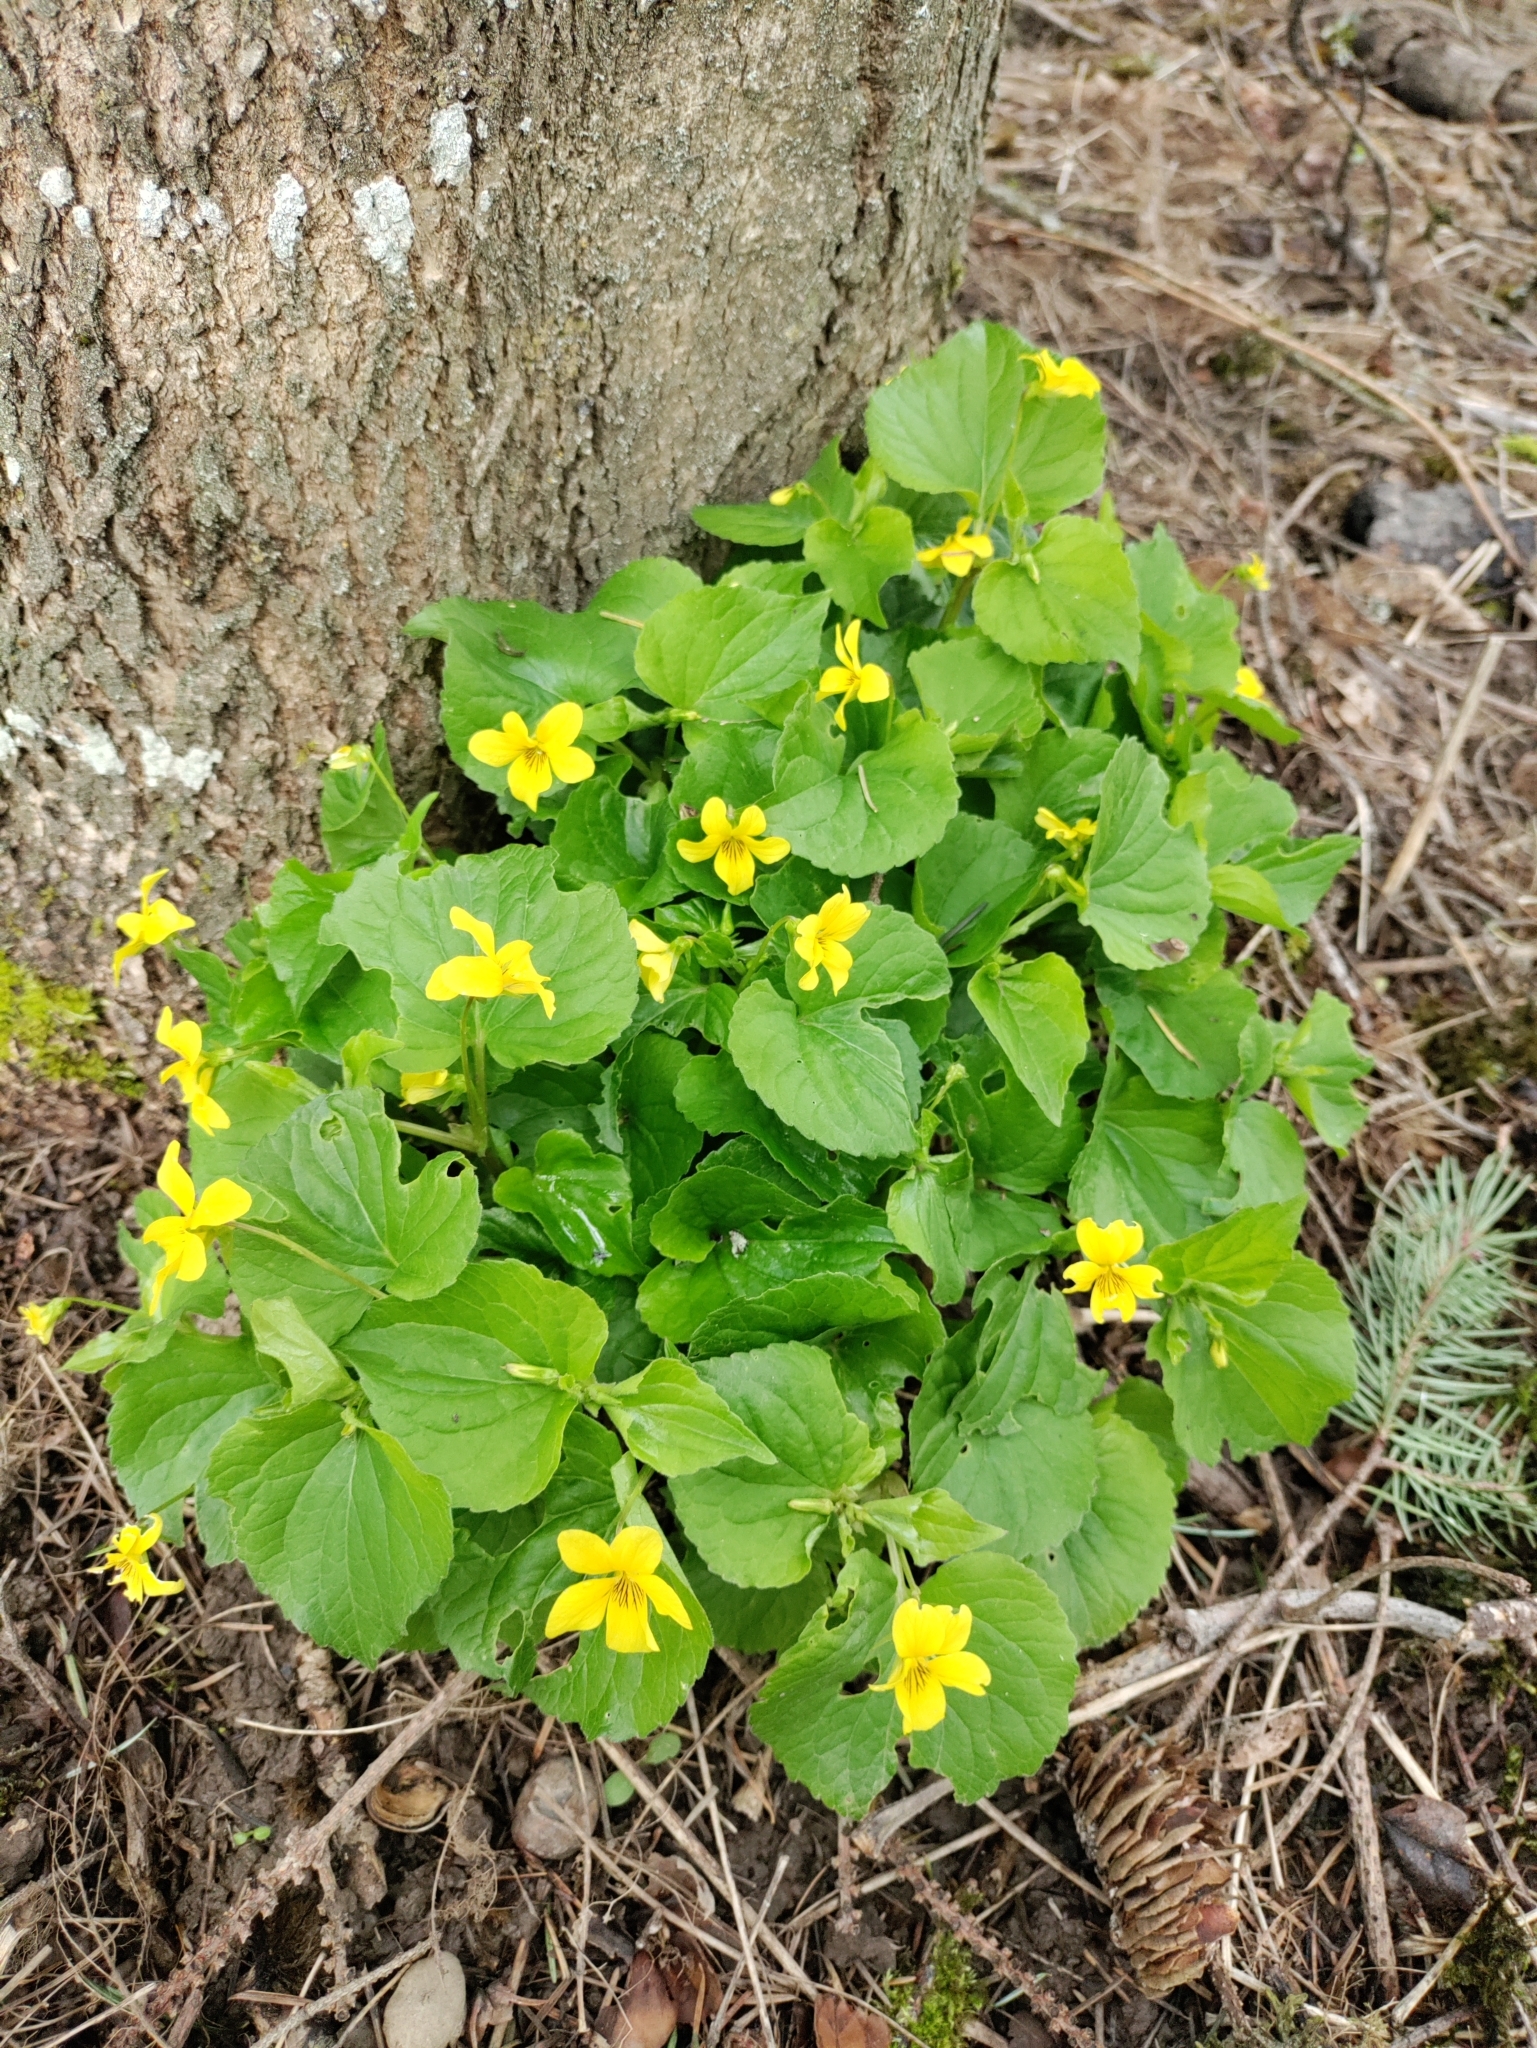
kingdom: Plantae
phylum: Tracheophyta
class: Magnoliopsida
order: Malpighiales
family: Violaceae
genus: Viola
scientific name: Viola glabella
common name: Stream violet
